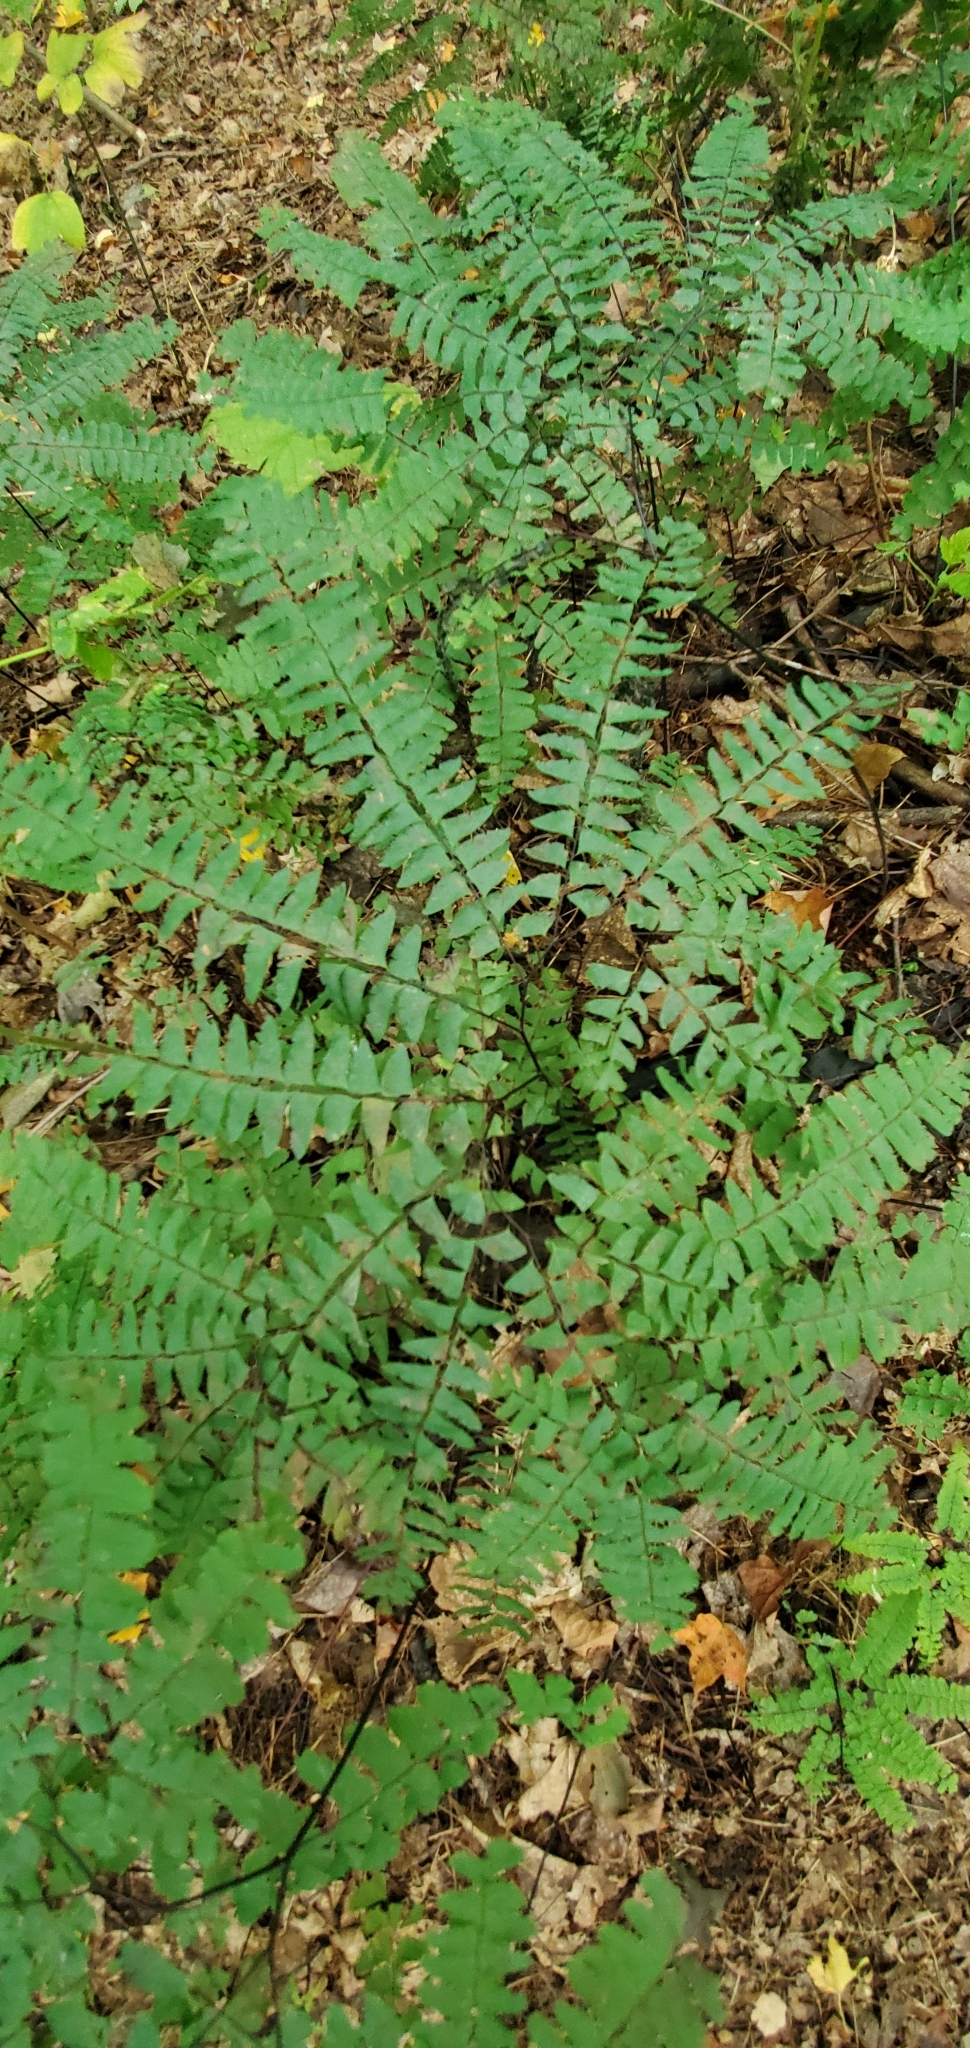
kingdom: Plantae
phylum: Tracheophyta
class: Polypodiopsida
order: Polypodiales
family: Pteridaceae
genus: Adiantum
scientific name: Adiantum pedatum
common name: Five-finger fern
